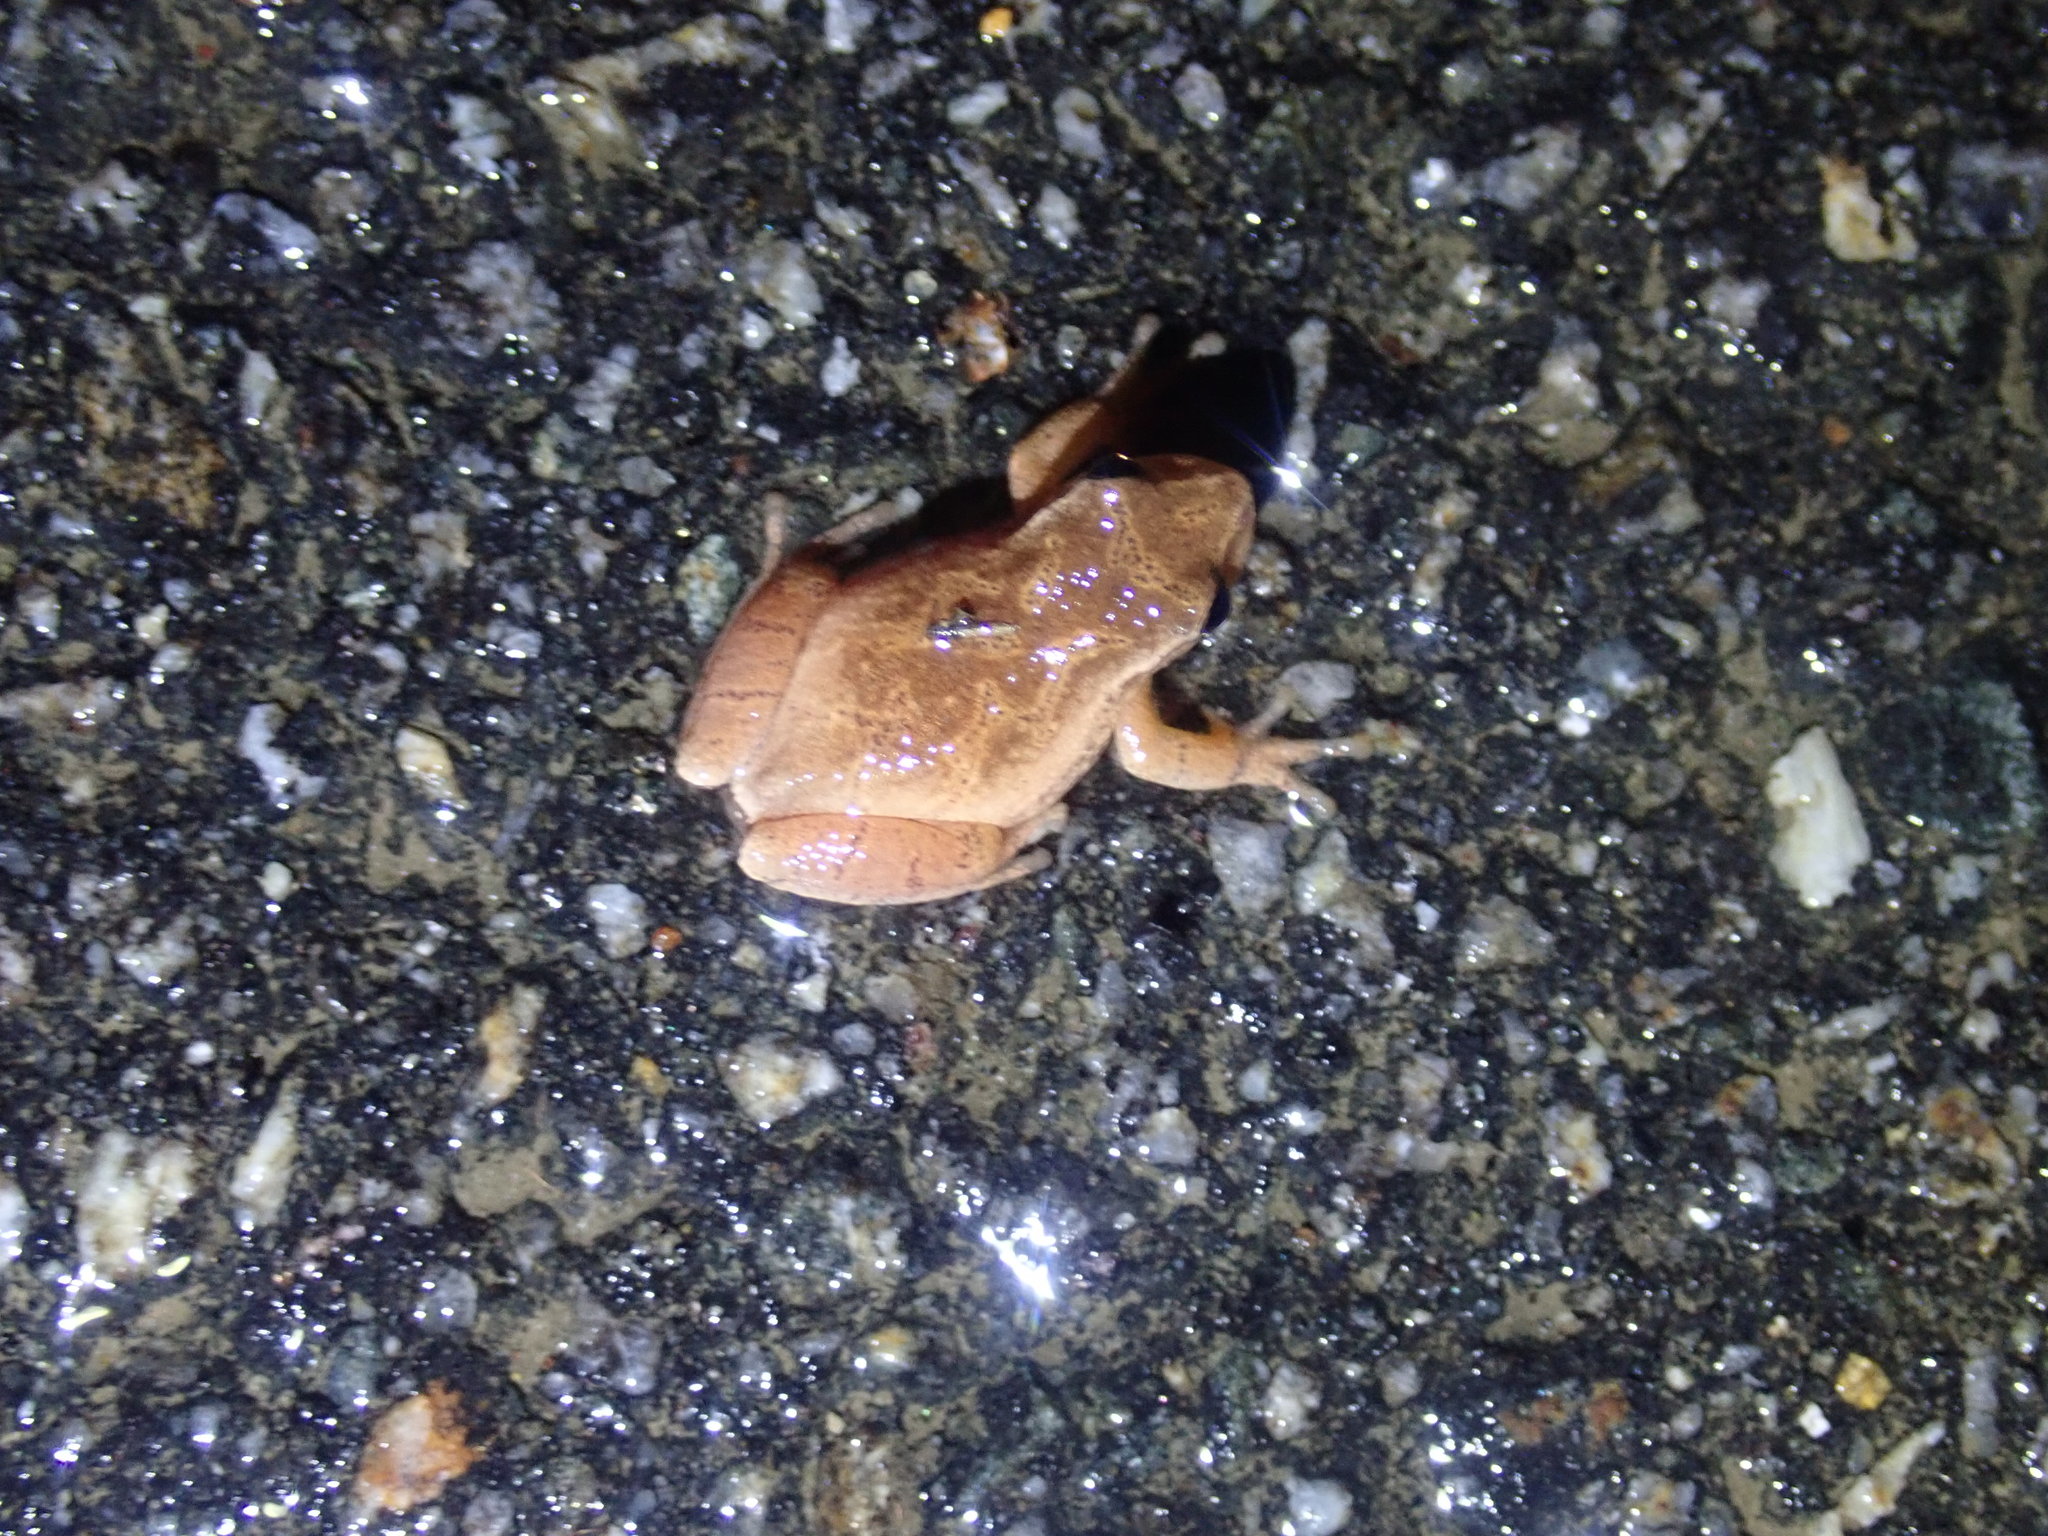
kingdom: Animalia
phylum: Chordata
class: Amphibia
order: Anura
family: Hylidae
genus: Pseudacris
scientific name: Pseudacris crucifer
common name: Spring peeper
